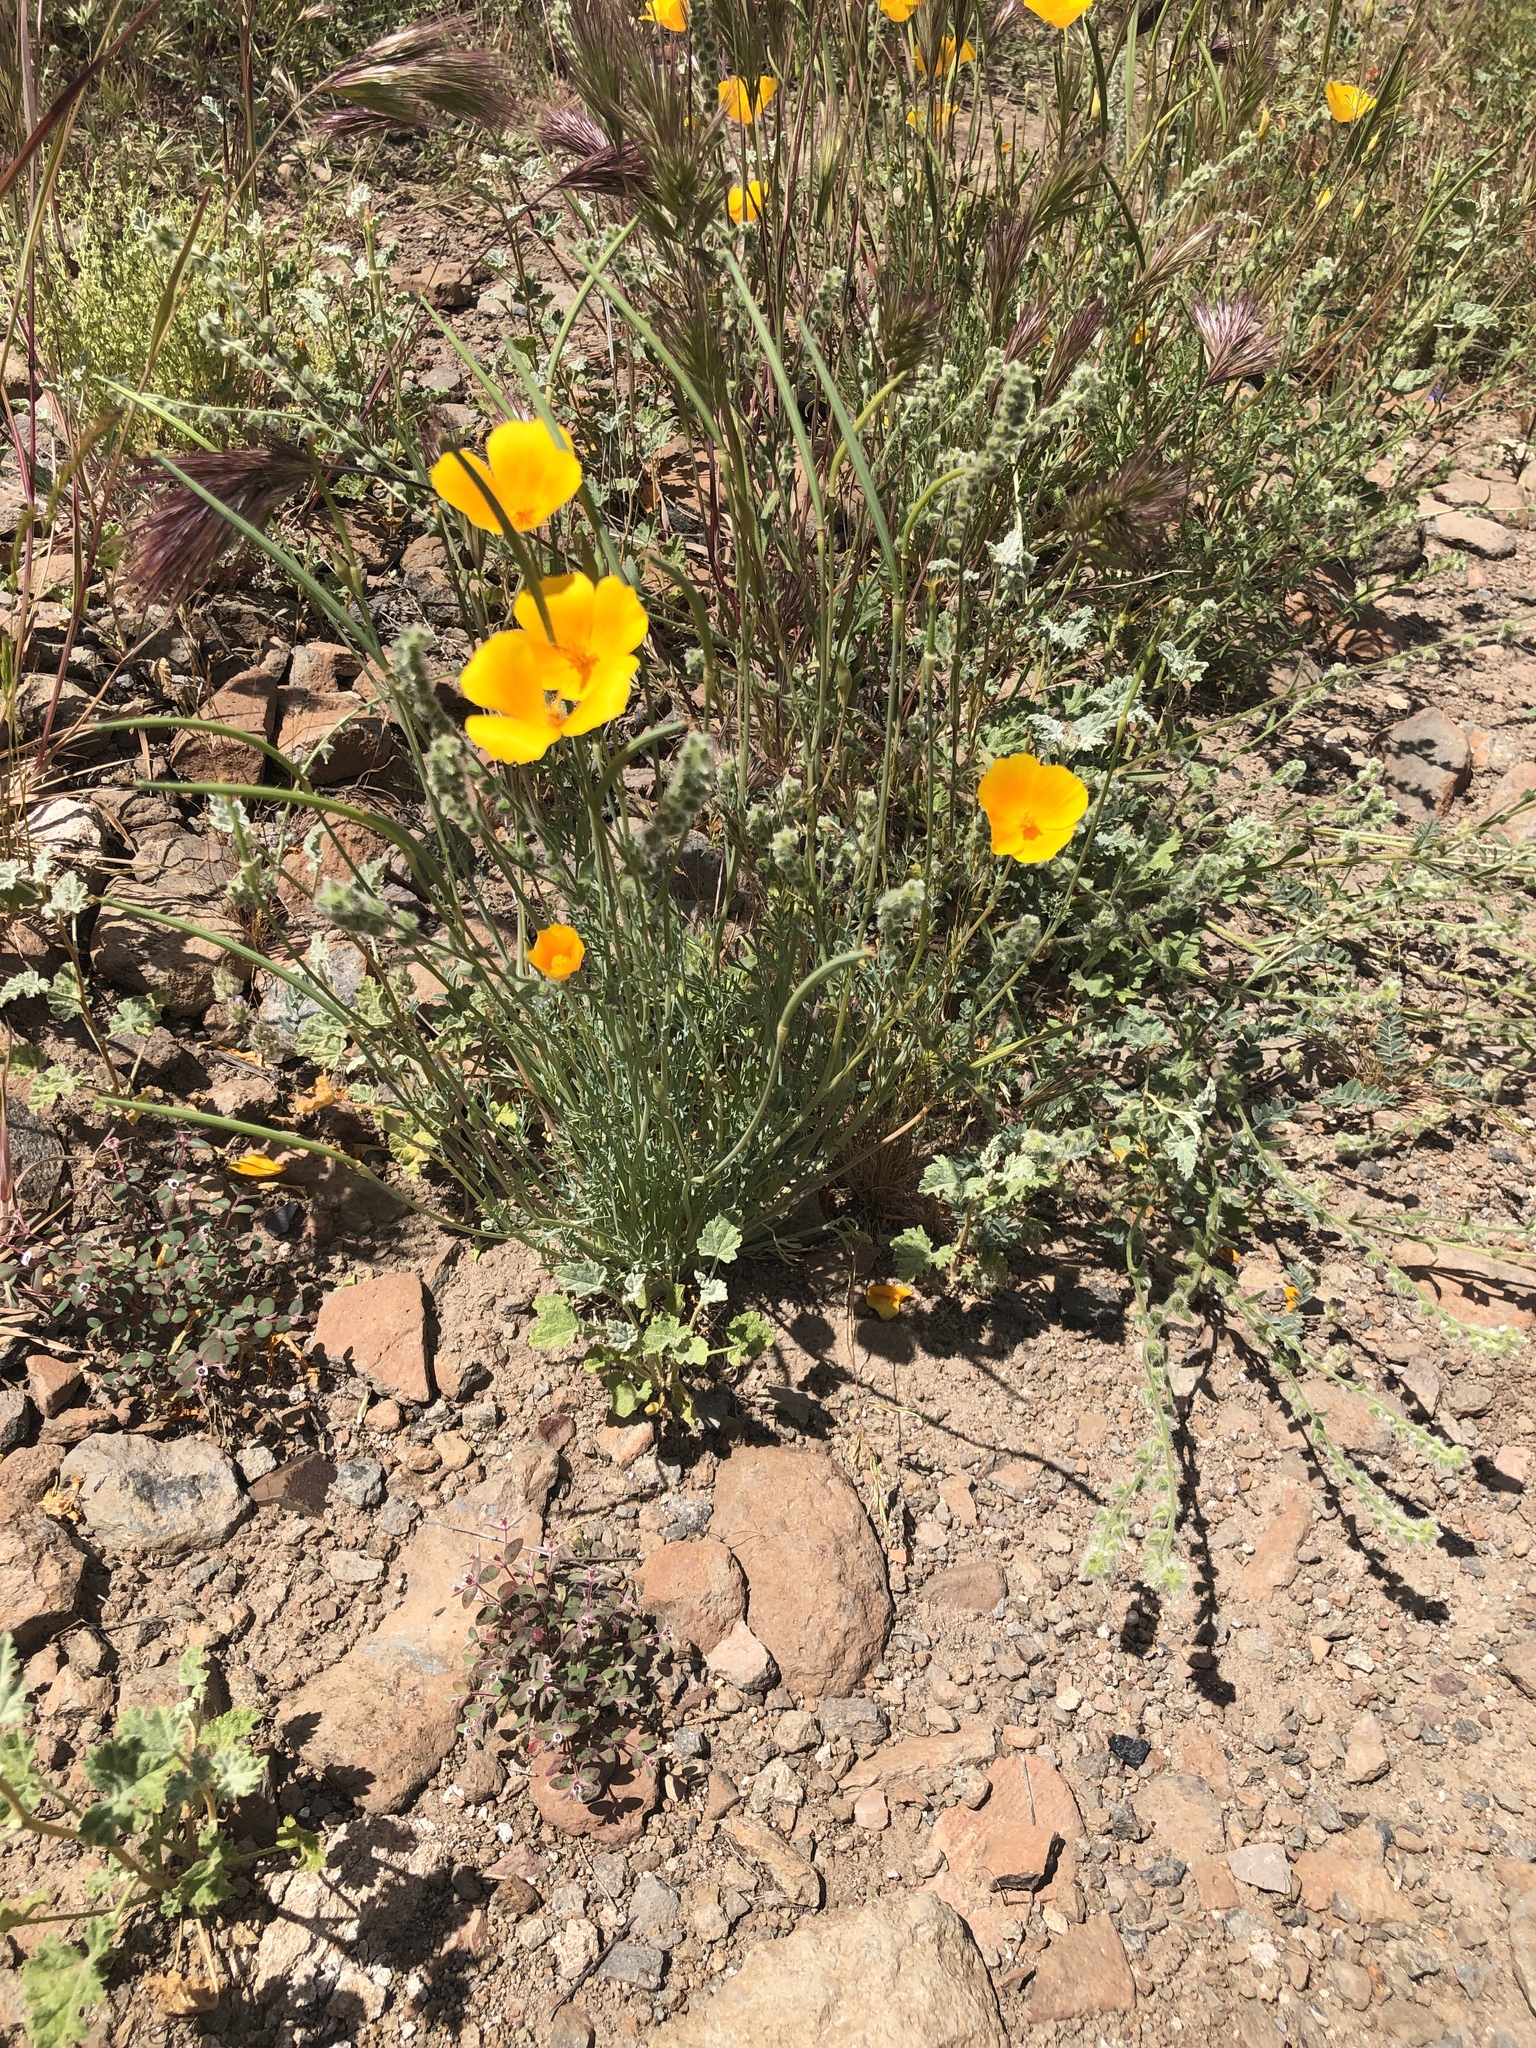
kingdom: Plantae
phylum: Tracheophyta
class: Magnoliopsida
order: Ranunculales
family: Papaveraceae
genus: Eschscholzia
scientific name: Eschscholzia californica
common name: California poppy
